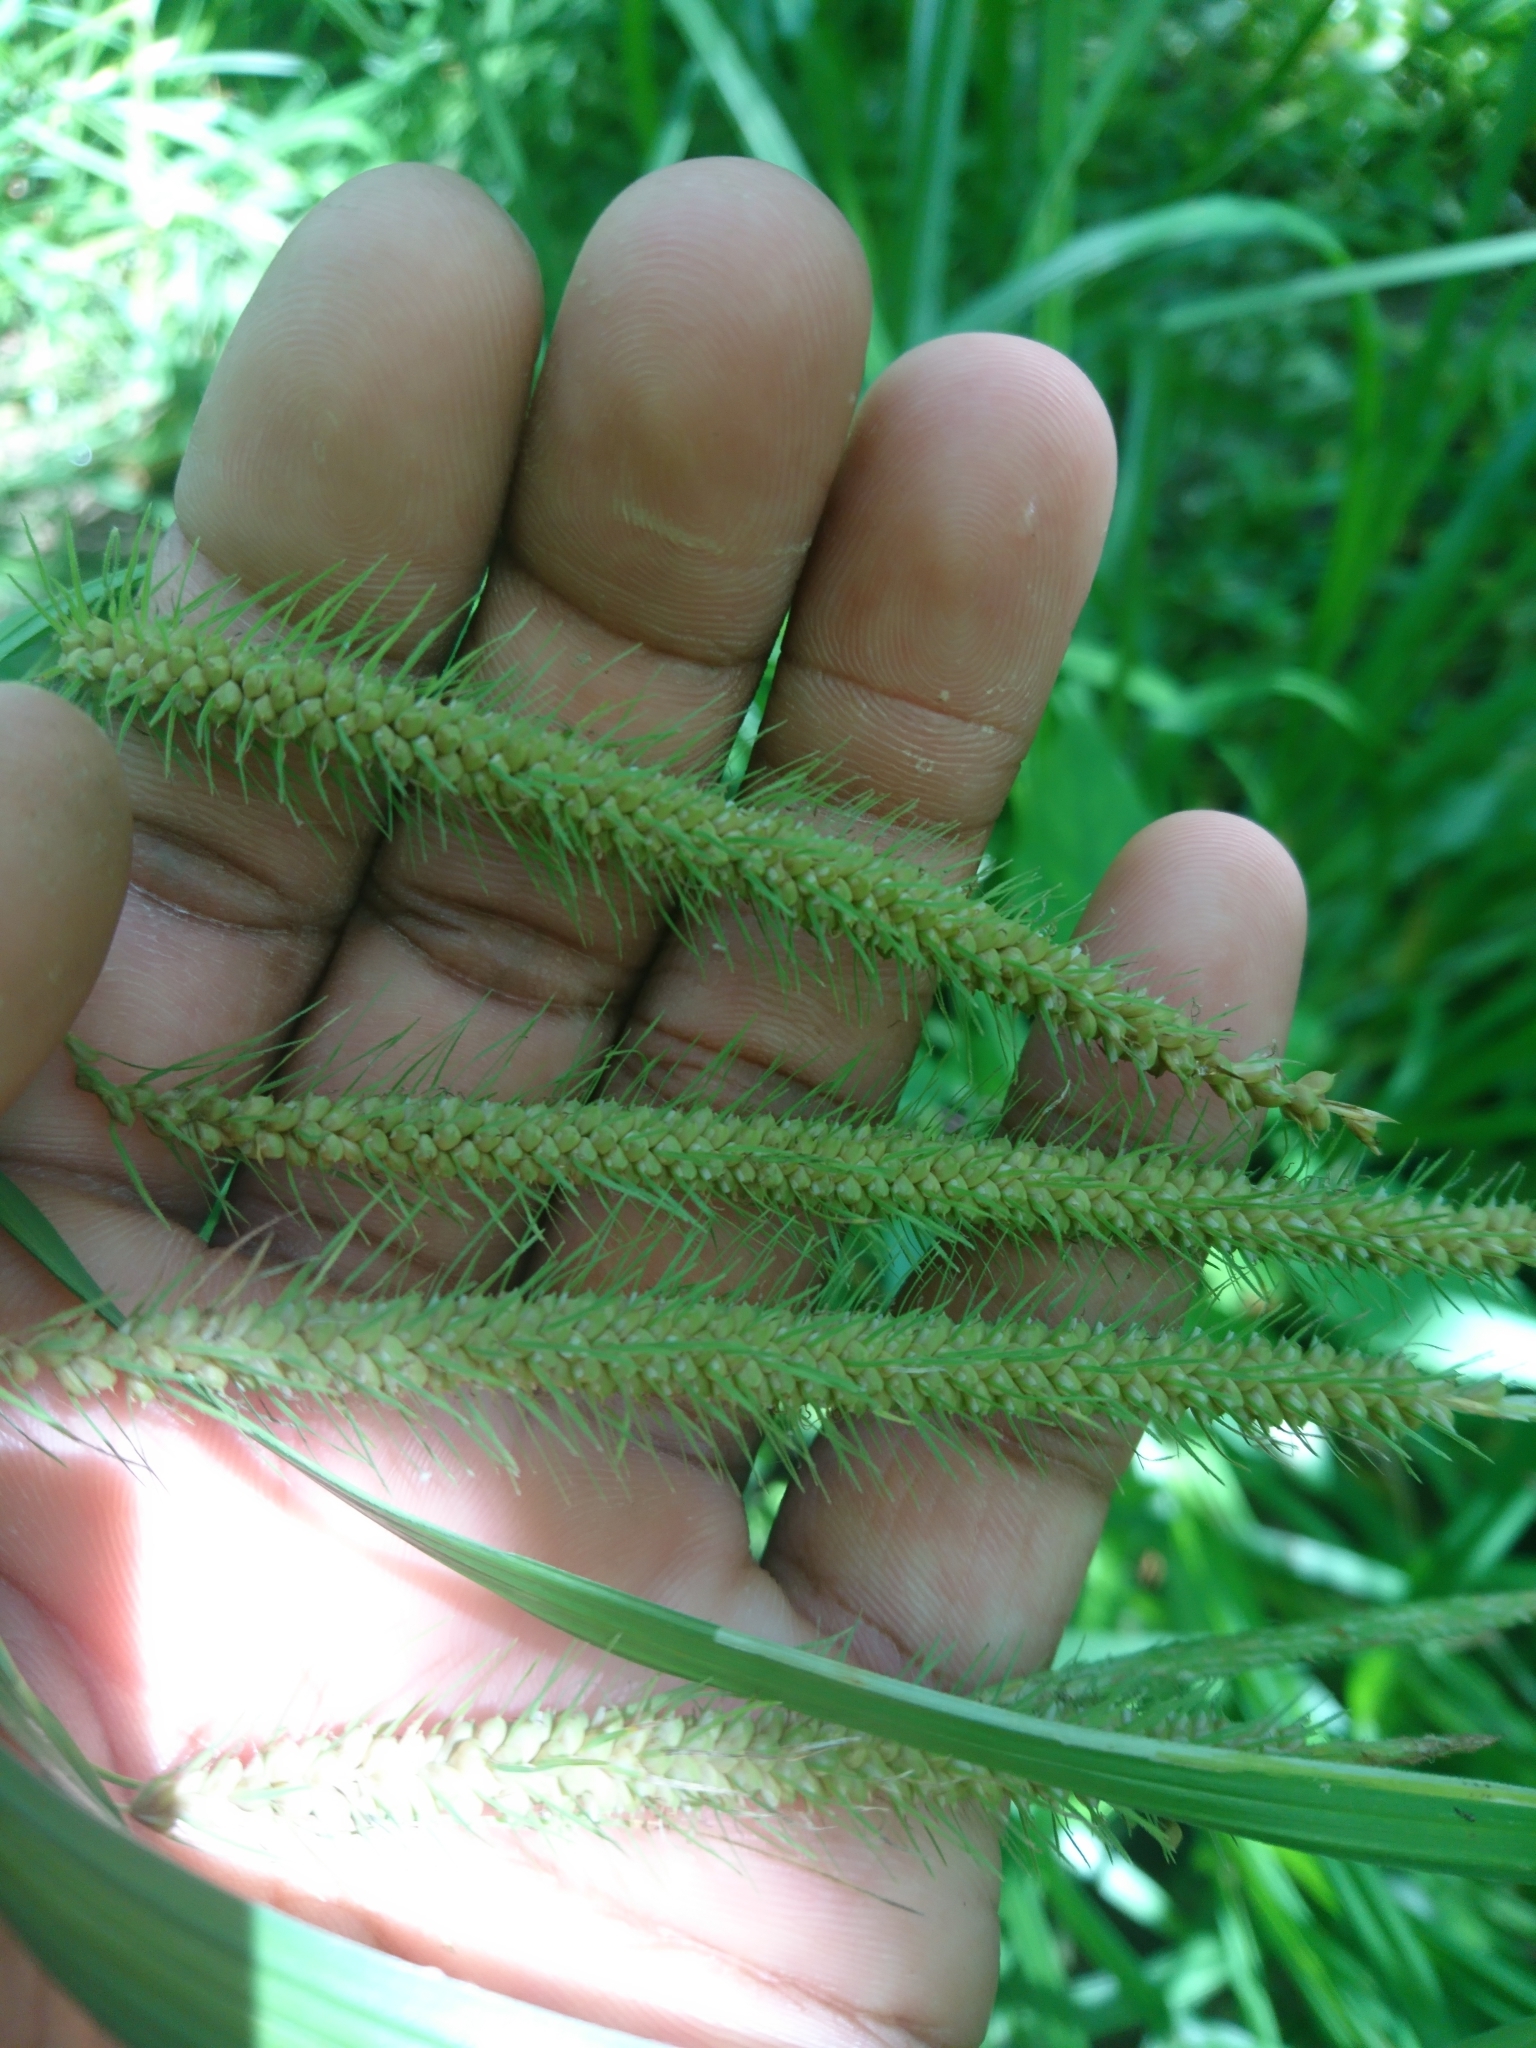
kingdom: Plantae
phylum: Tracheophyta
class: Liliopsida
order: Poales
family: Cyperaceae
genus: Carex
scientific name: Carex gynandra
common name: Nodding sedge
